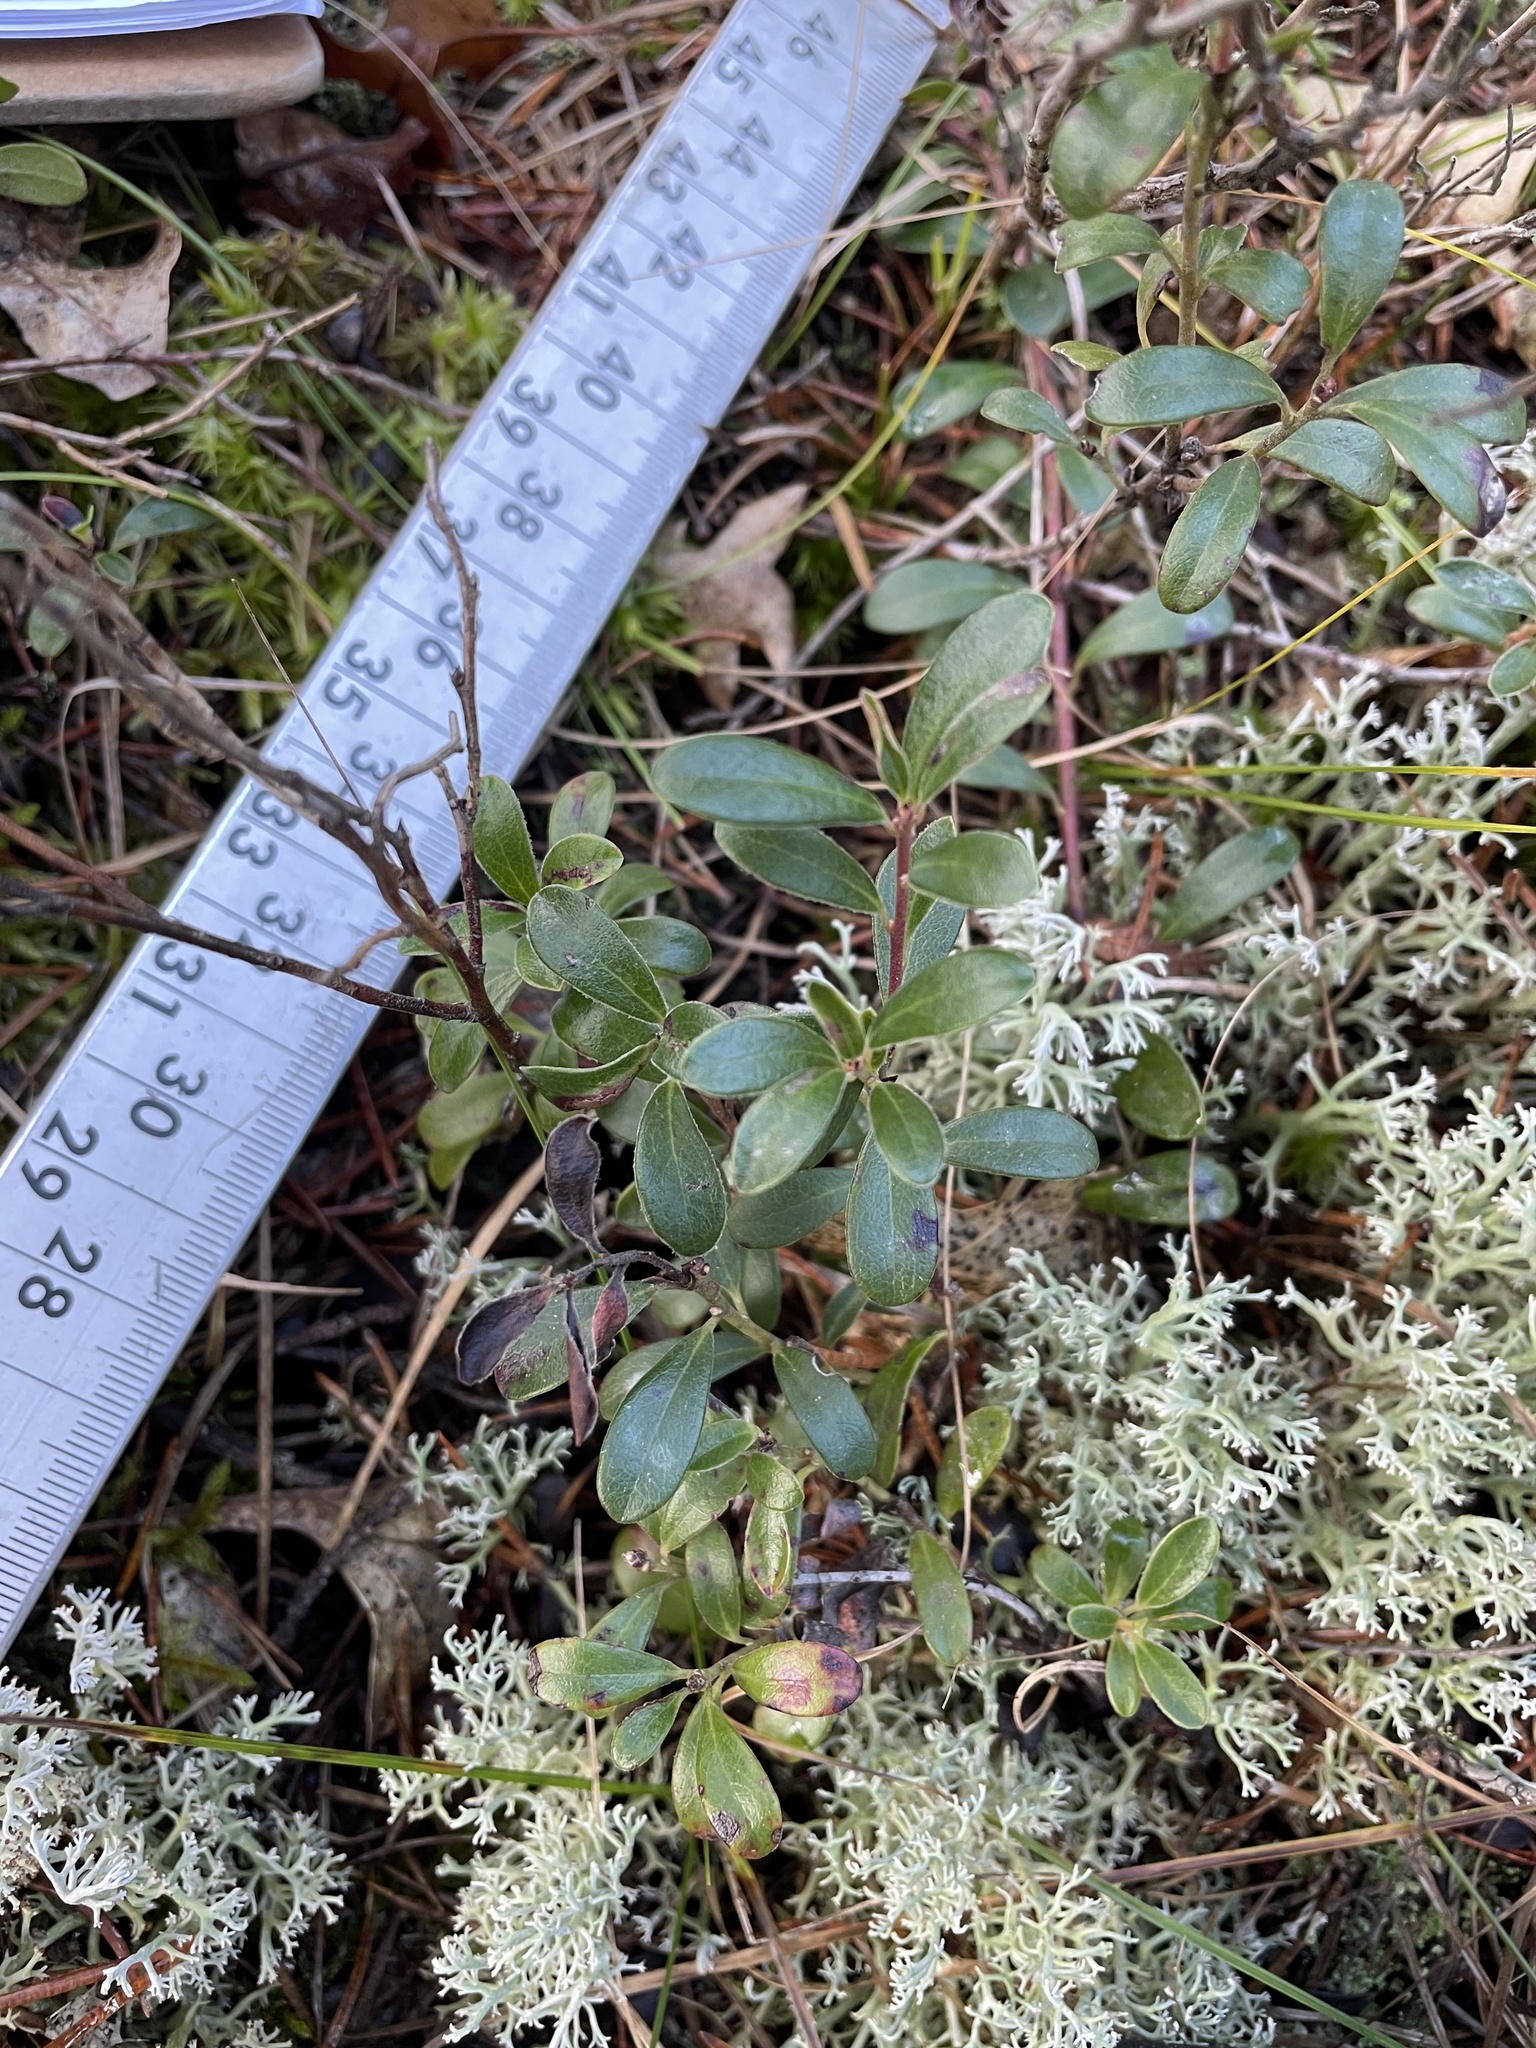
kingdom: Plantae
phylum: Tracheophyta
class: Magnoliopsida
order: Ericales
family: Ericaceae
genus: Arctostaphylos
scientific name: Arctostaphylos uva-ursi
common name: Bearberry
